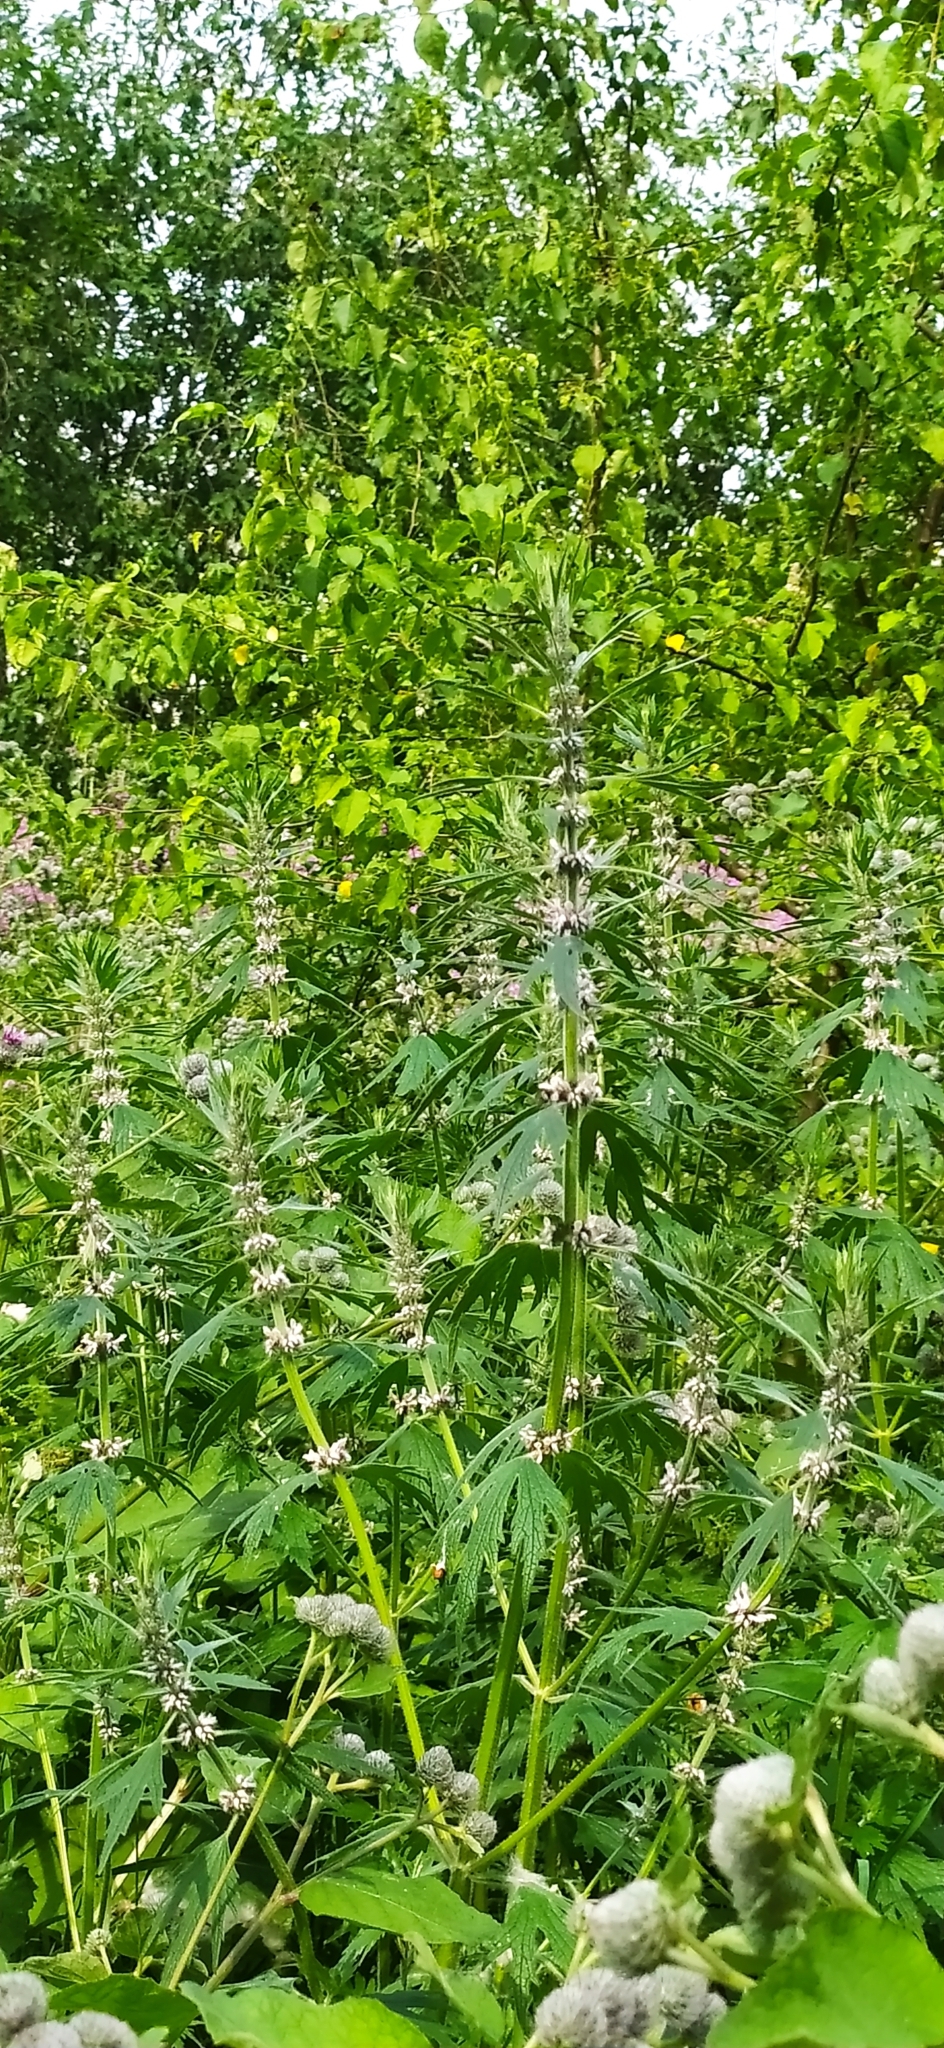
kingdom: Plantae
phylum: Tracheophyta
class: Magnoliopsida
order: Lamiales
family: Lamiaceae
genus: Leonurus
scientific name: Leonurus quinquelobatus
